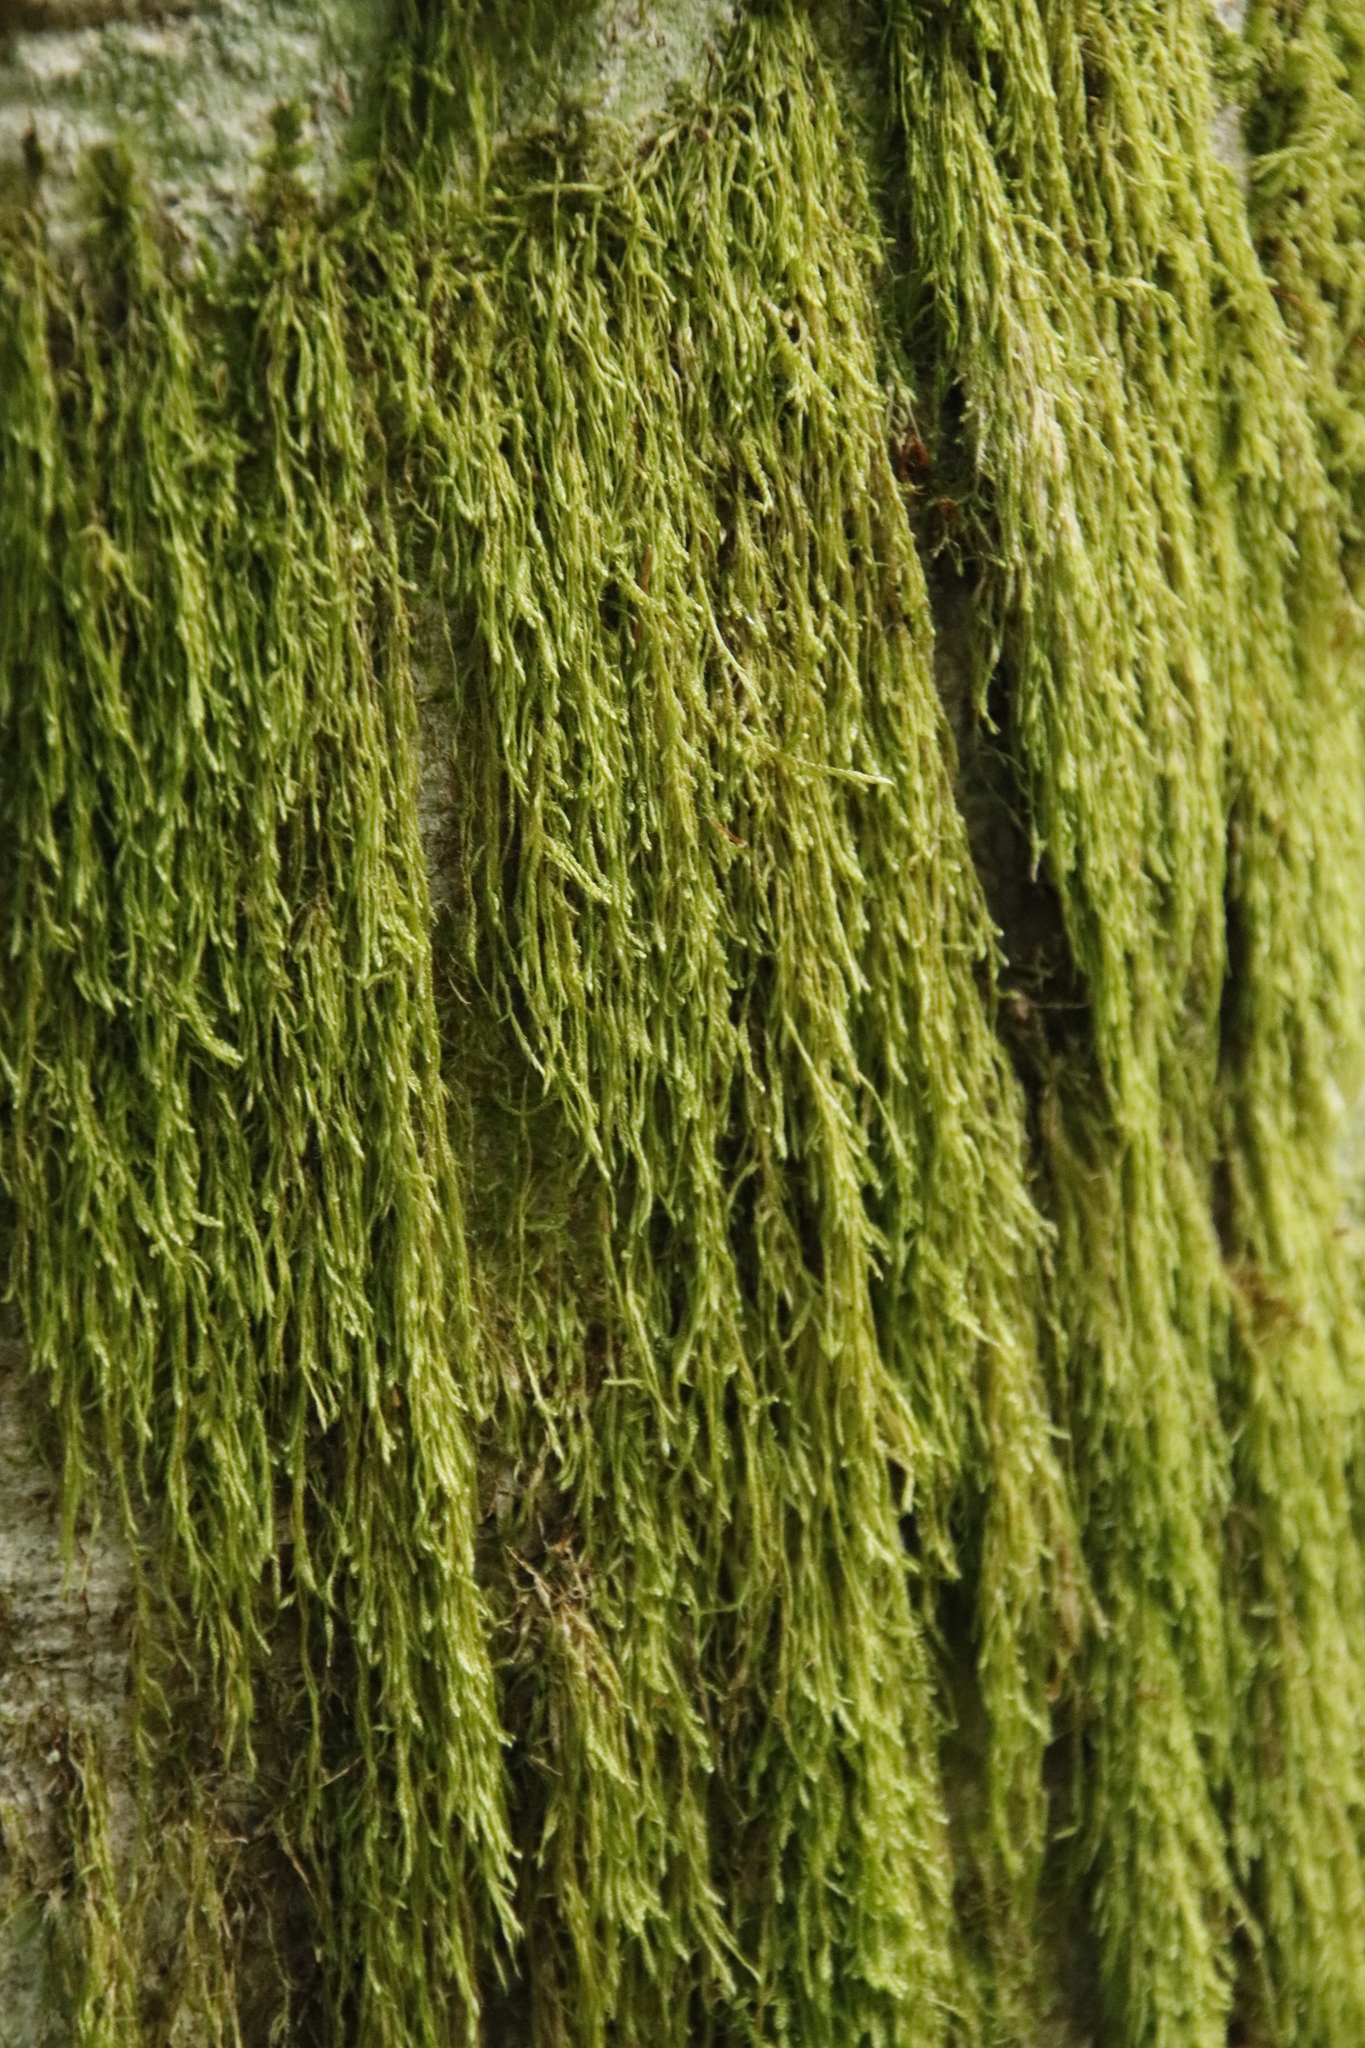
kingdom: Plantae
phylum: Bryophyta
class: Bryopsida
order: Hypnales
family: Hypnaceae
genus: Hypnum
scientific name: Hypnum andoi
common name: Ando's plait moss
